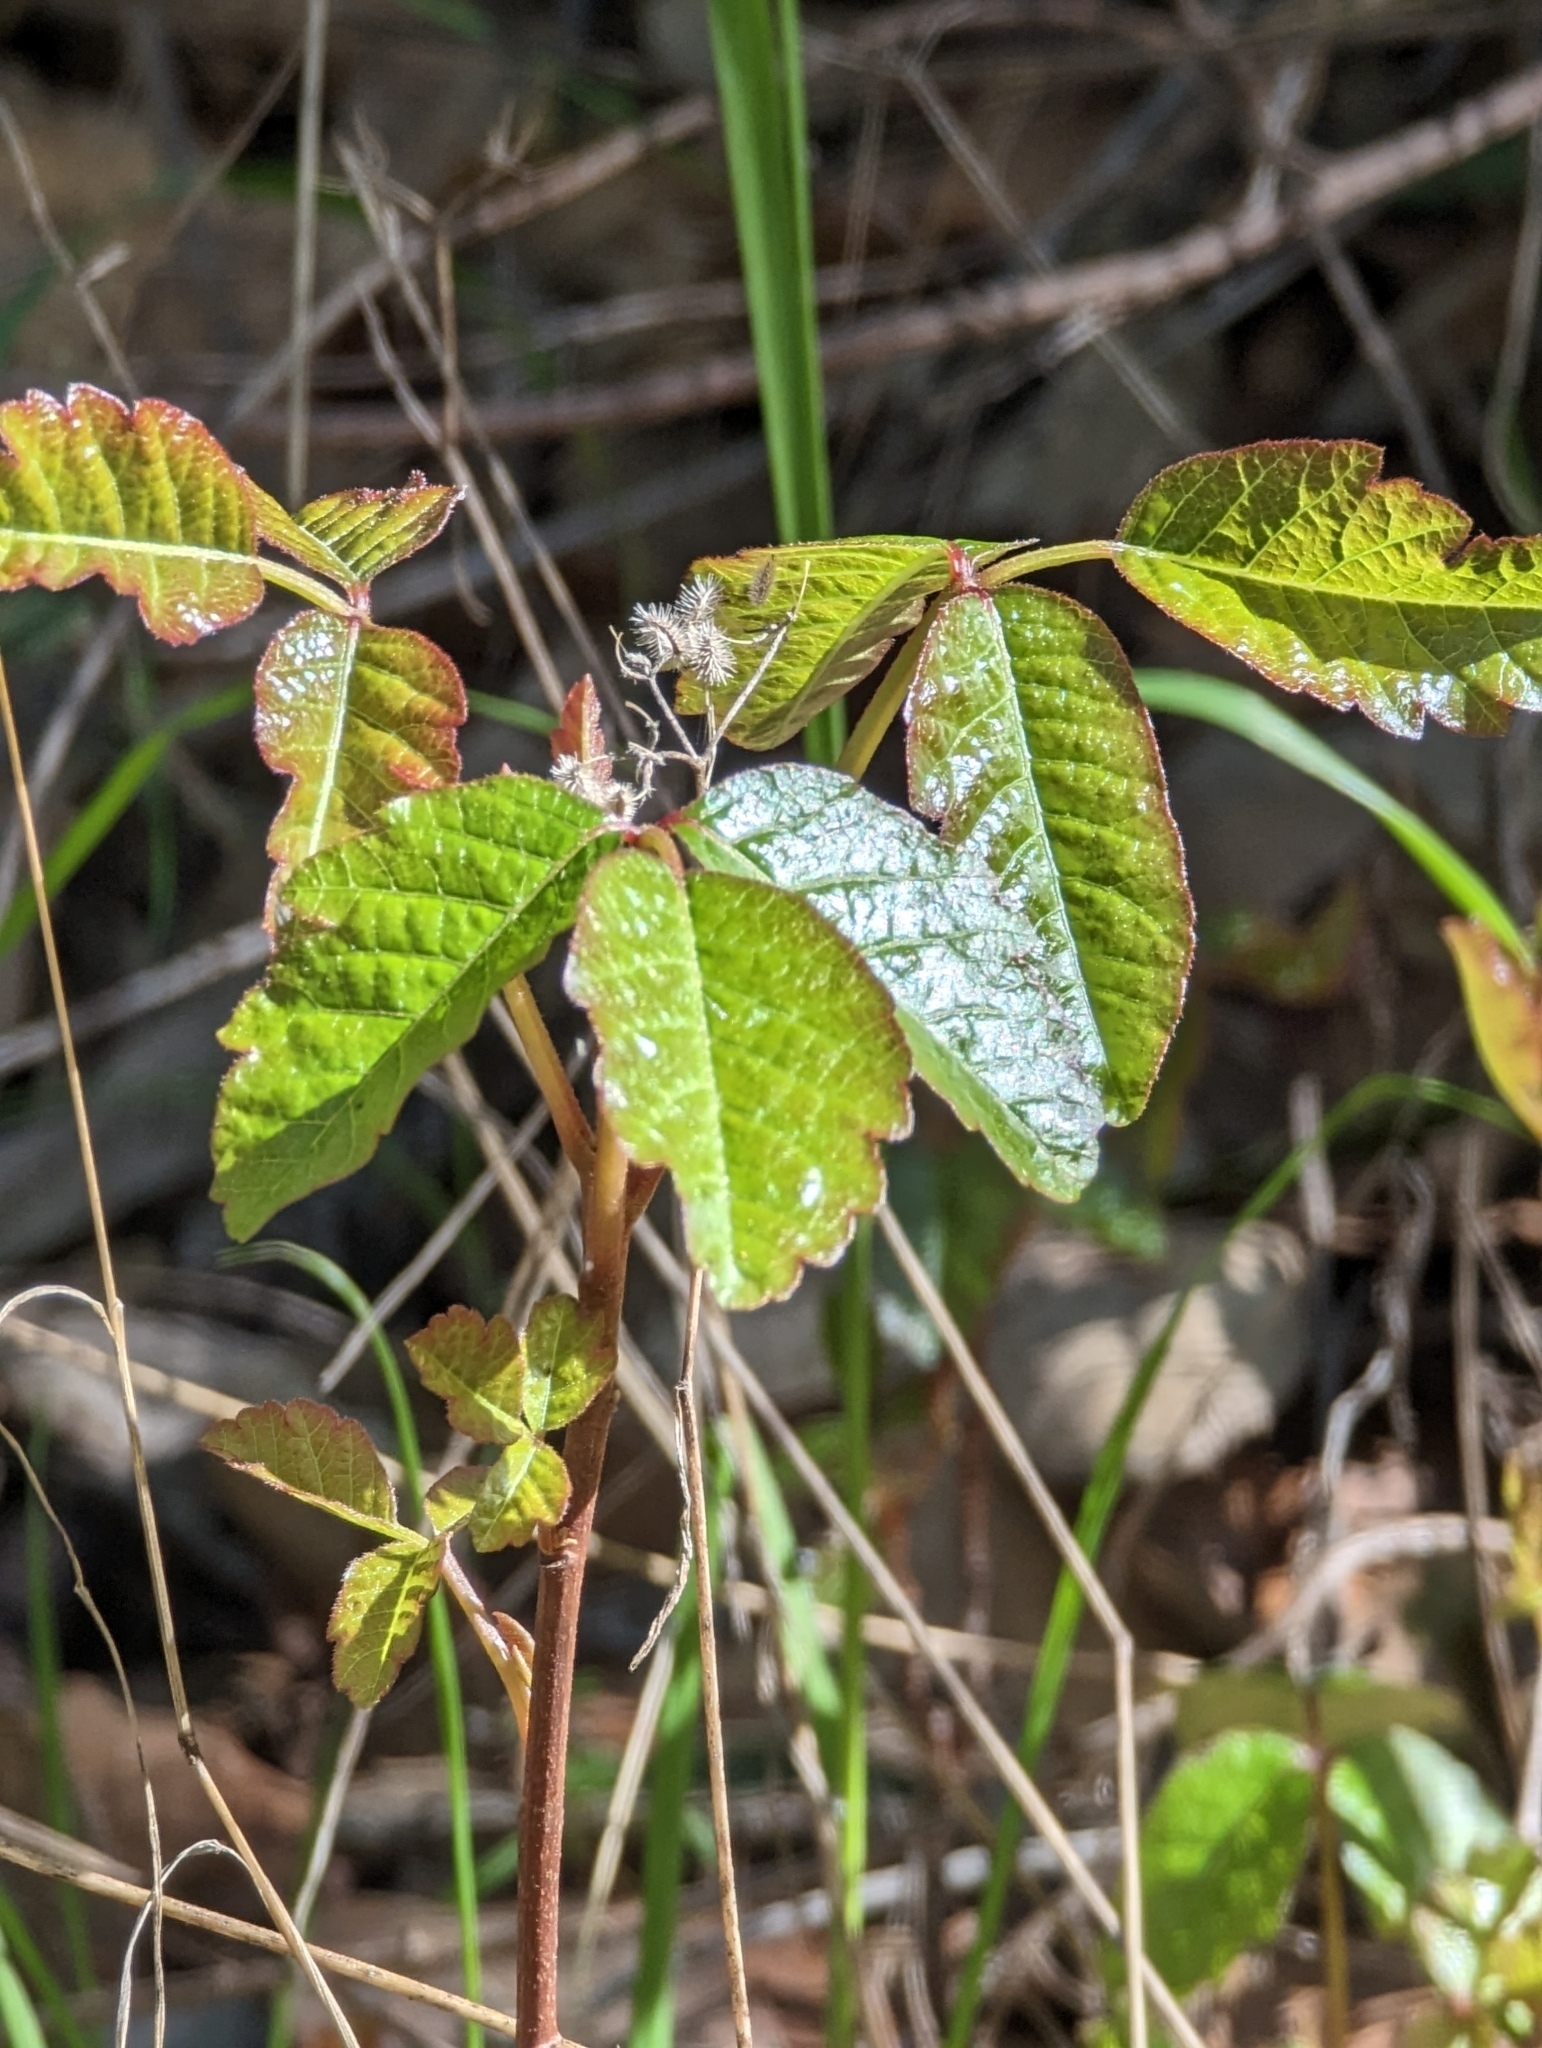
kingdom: Plantae
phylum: Tracheophyta
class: Magnoliopsida
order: Sapindales
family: Anacardiaceae
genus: Toxicodendron
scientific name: Toxicodendron diversilobum
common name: Pacific poison-oak
